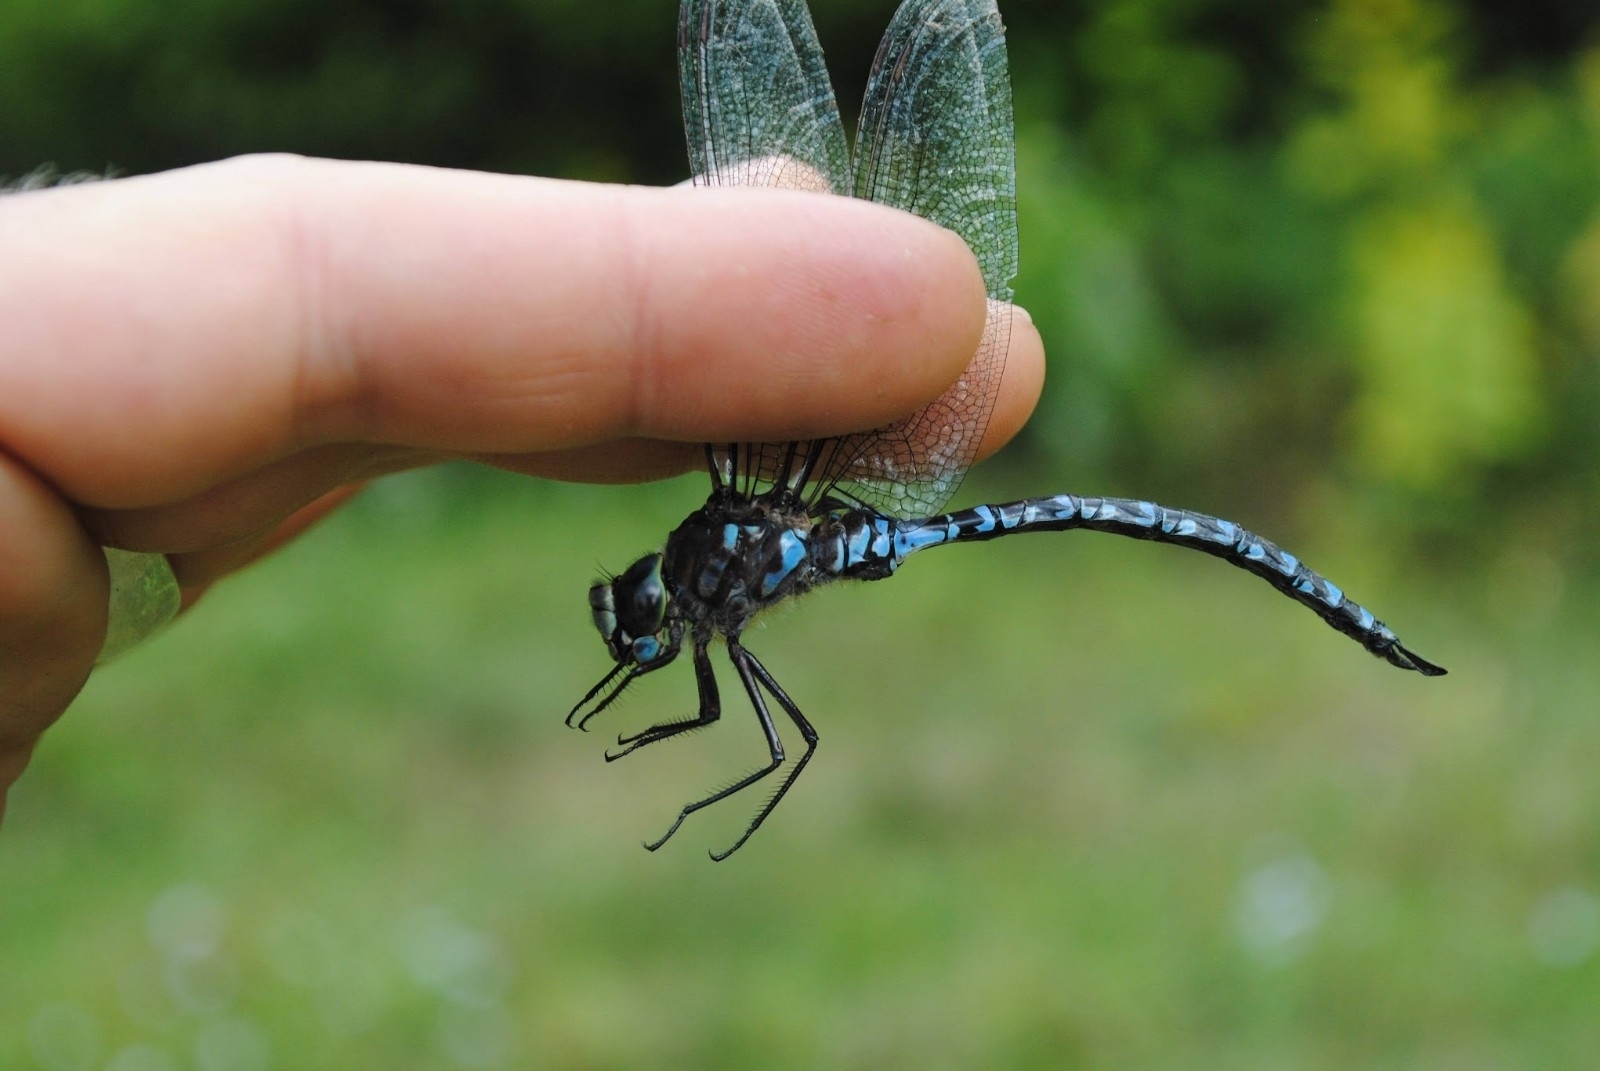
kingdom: Animalia
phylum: Arthropoda
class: Insecta
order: Odonata
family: Aeshnidae
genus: Aeshna
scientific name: Aeshna eremita
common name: Lake darner
